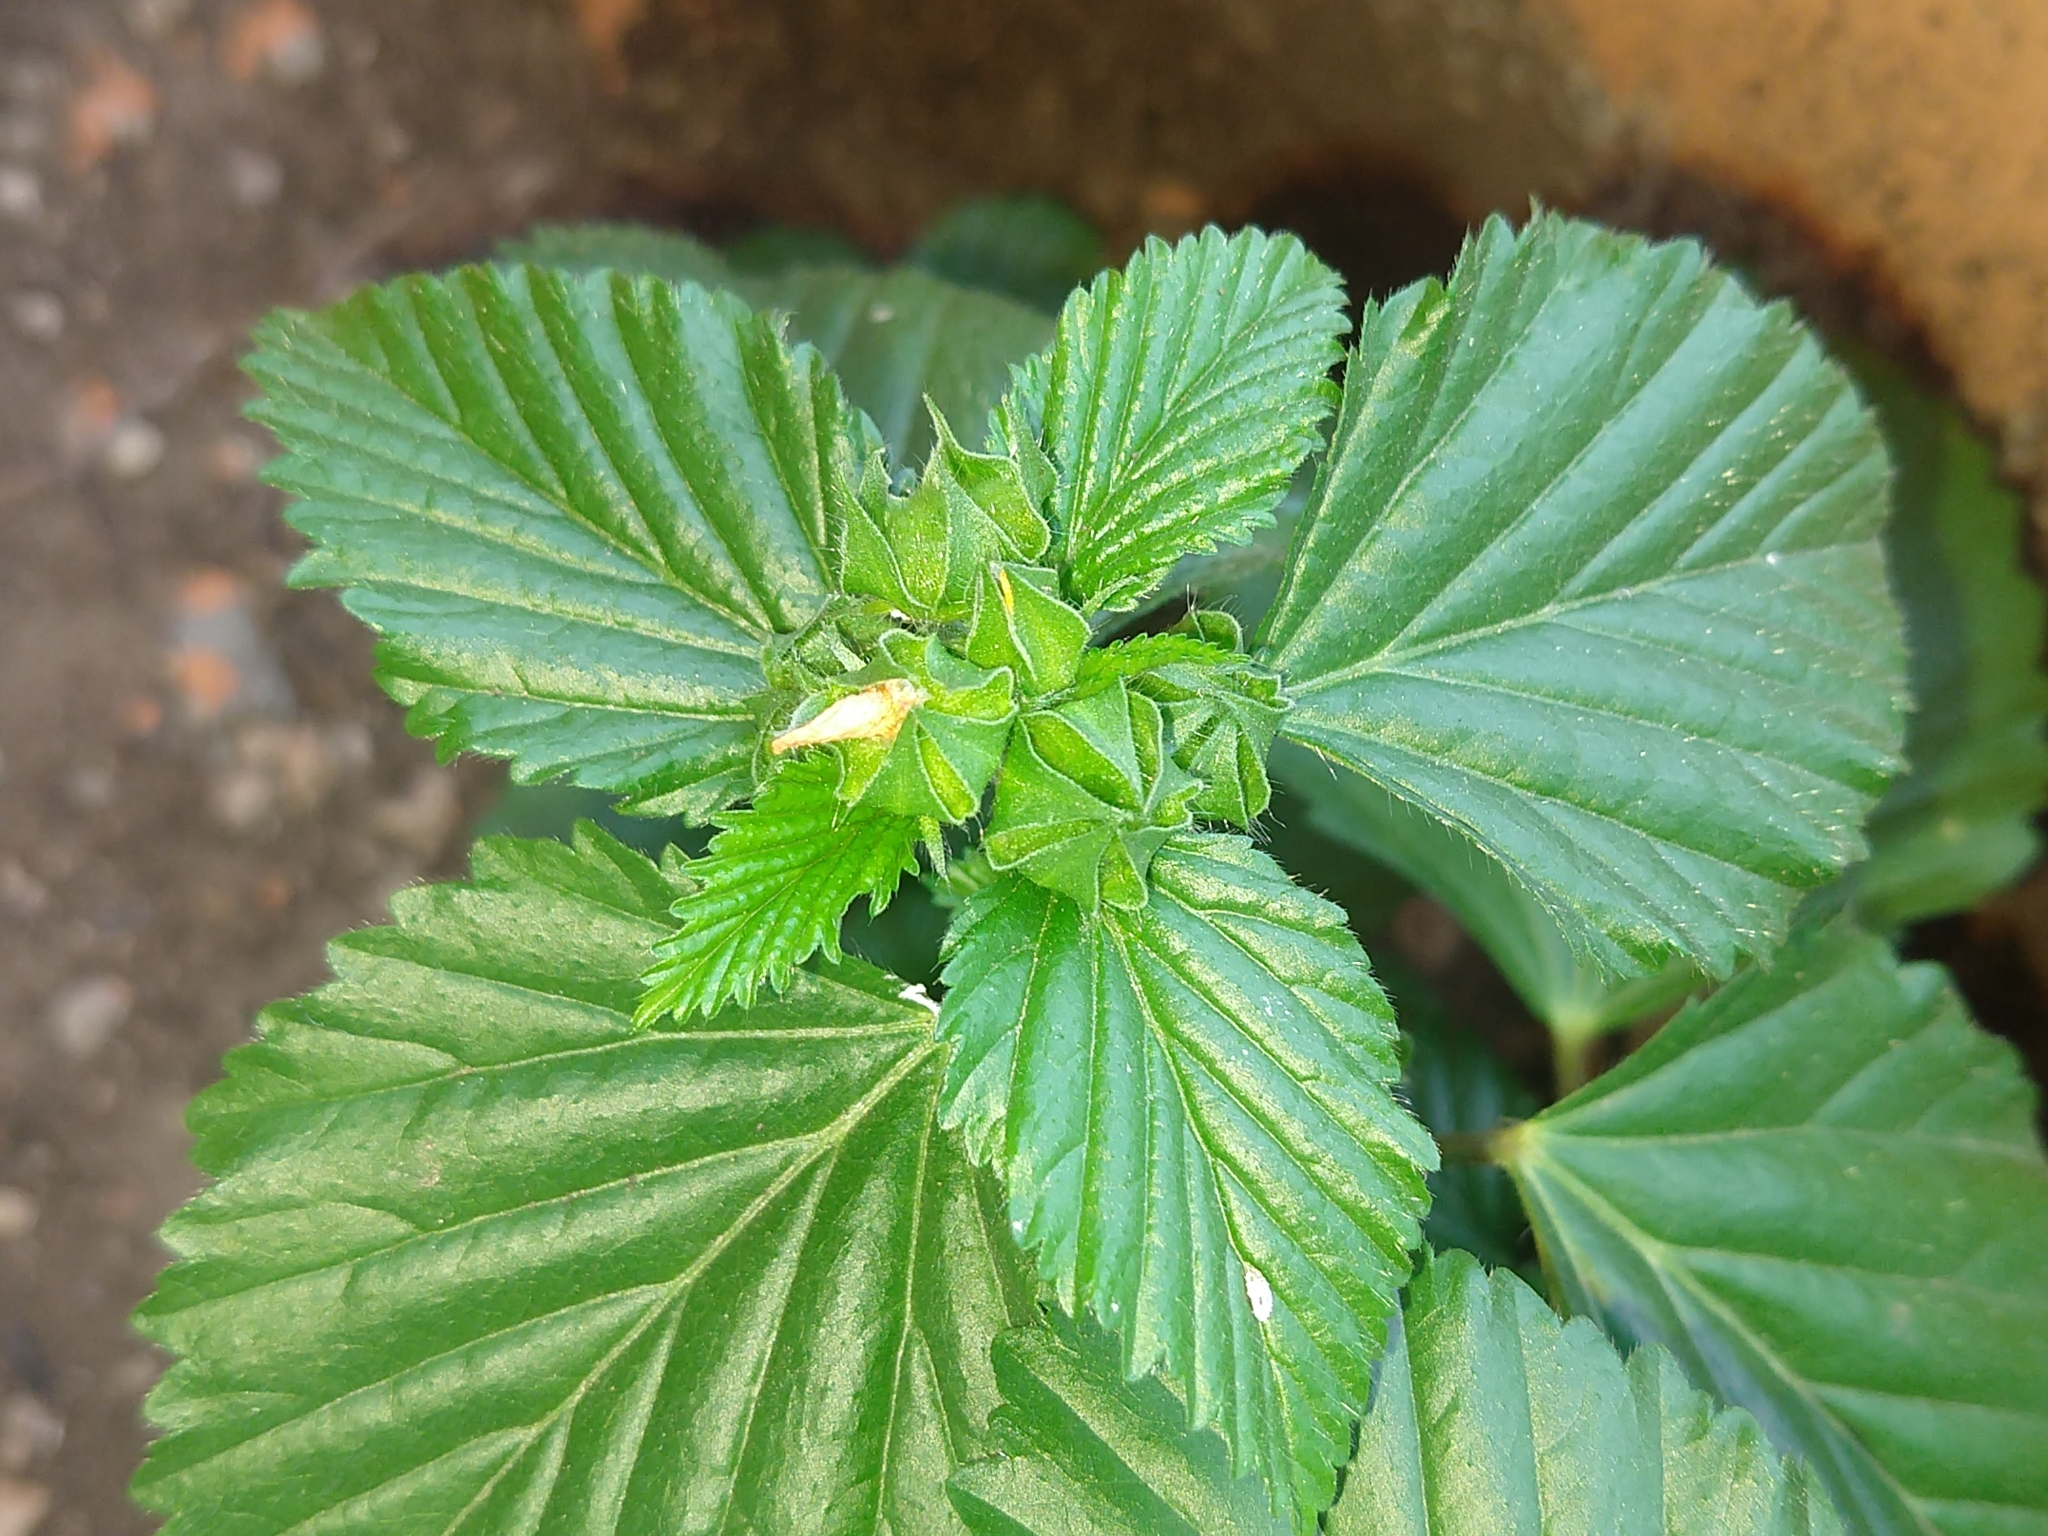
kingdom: Plantae
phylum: Tracheophyta
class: Magnoliopsida
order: Malvales
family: Malvaceae
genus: Malvastrum
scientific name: Malvastrum coromandelianum
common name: Threelobe false mallow
